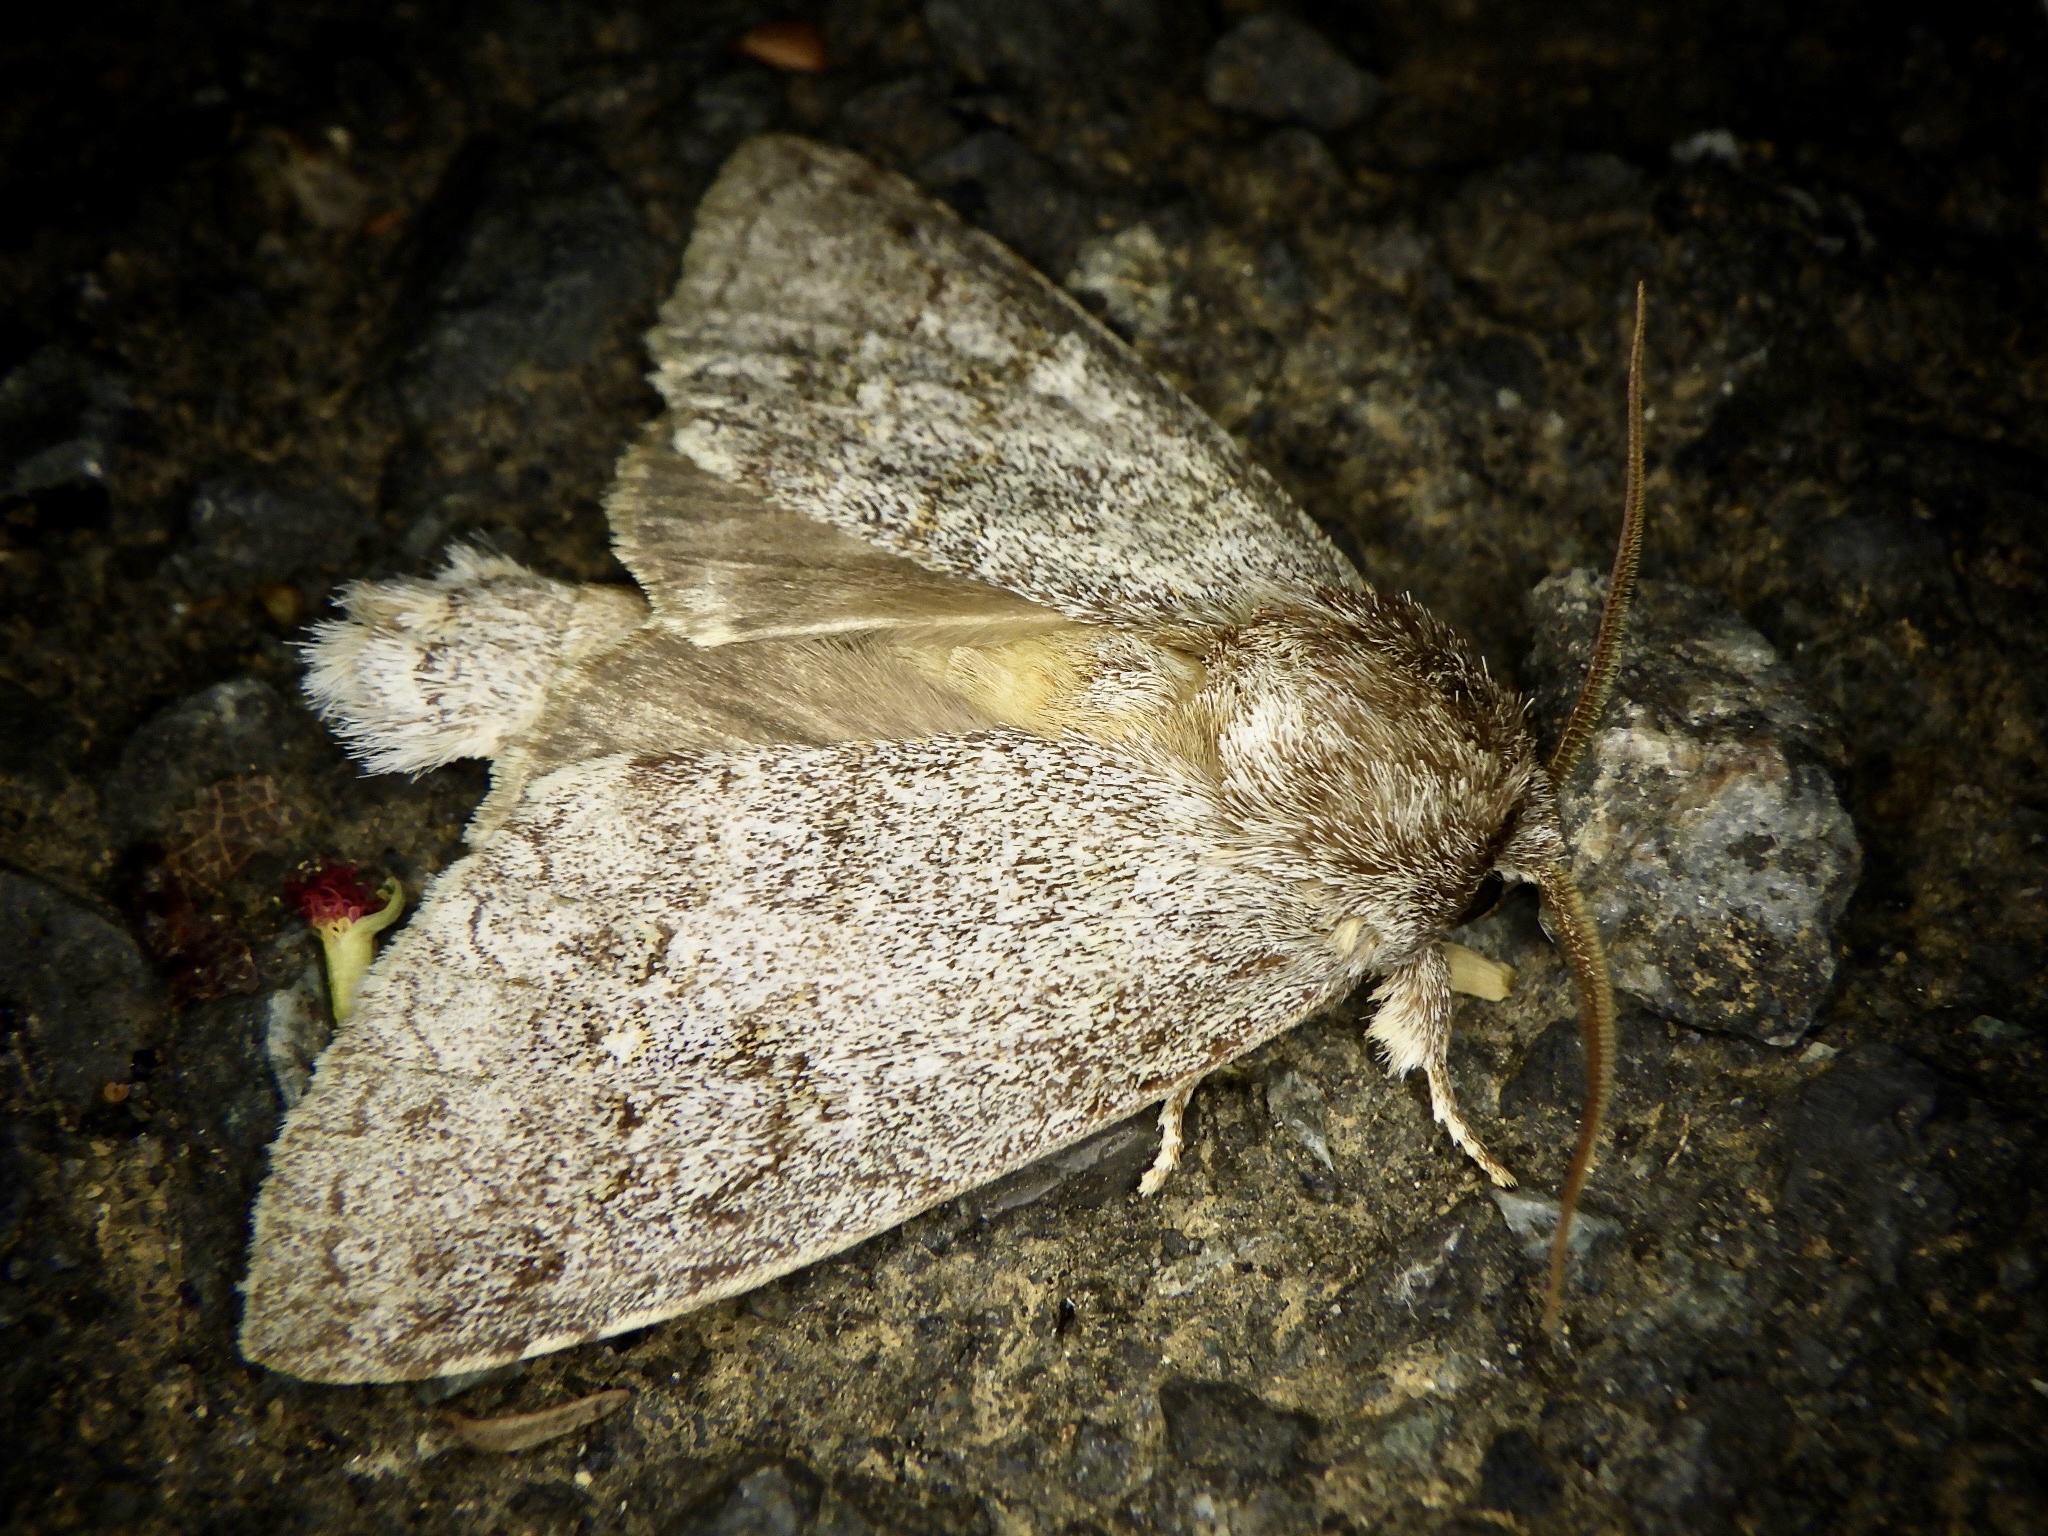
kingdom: Animalia
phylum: Arthropoda
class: Insecta
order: Lepidoptera
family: Notodontidae
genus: Mesophalera
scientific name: Mesophalera sigmata
